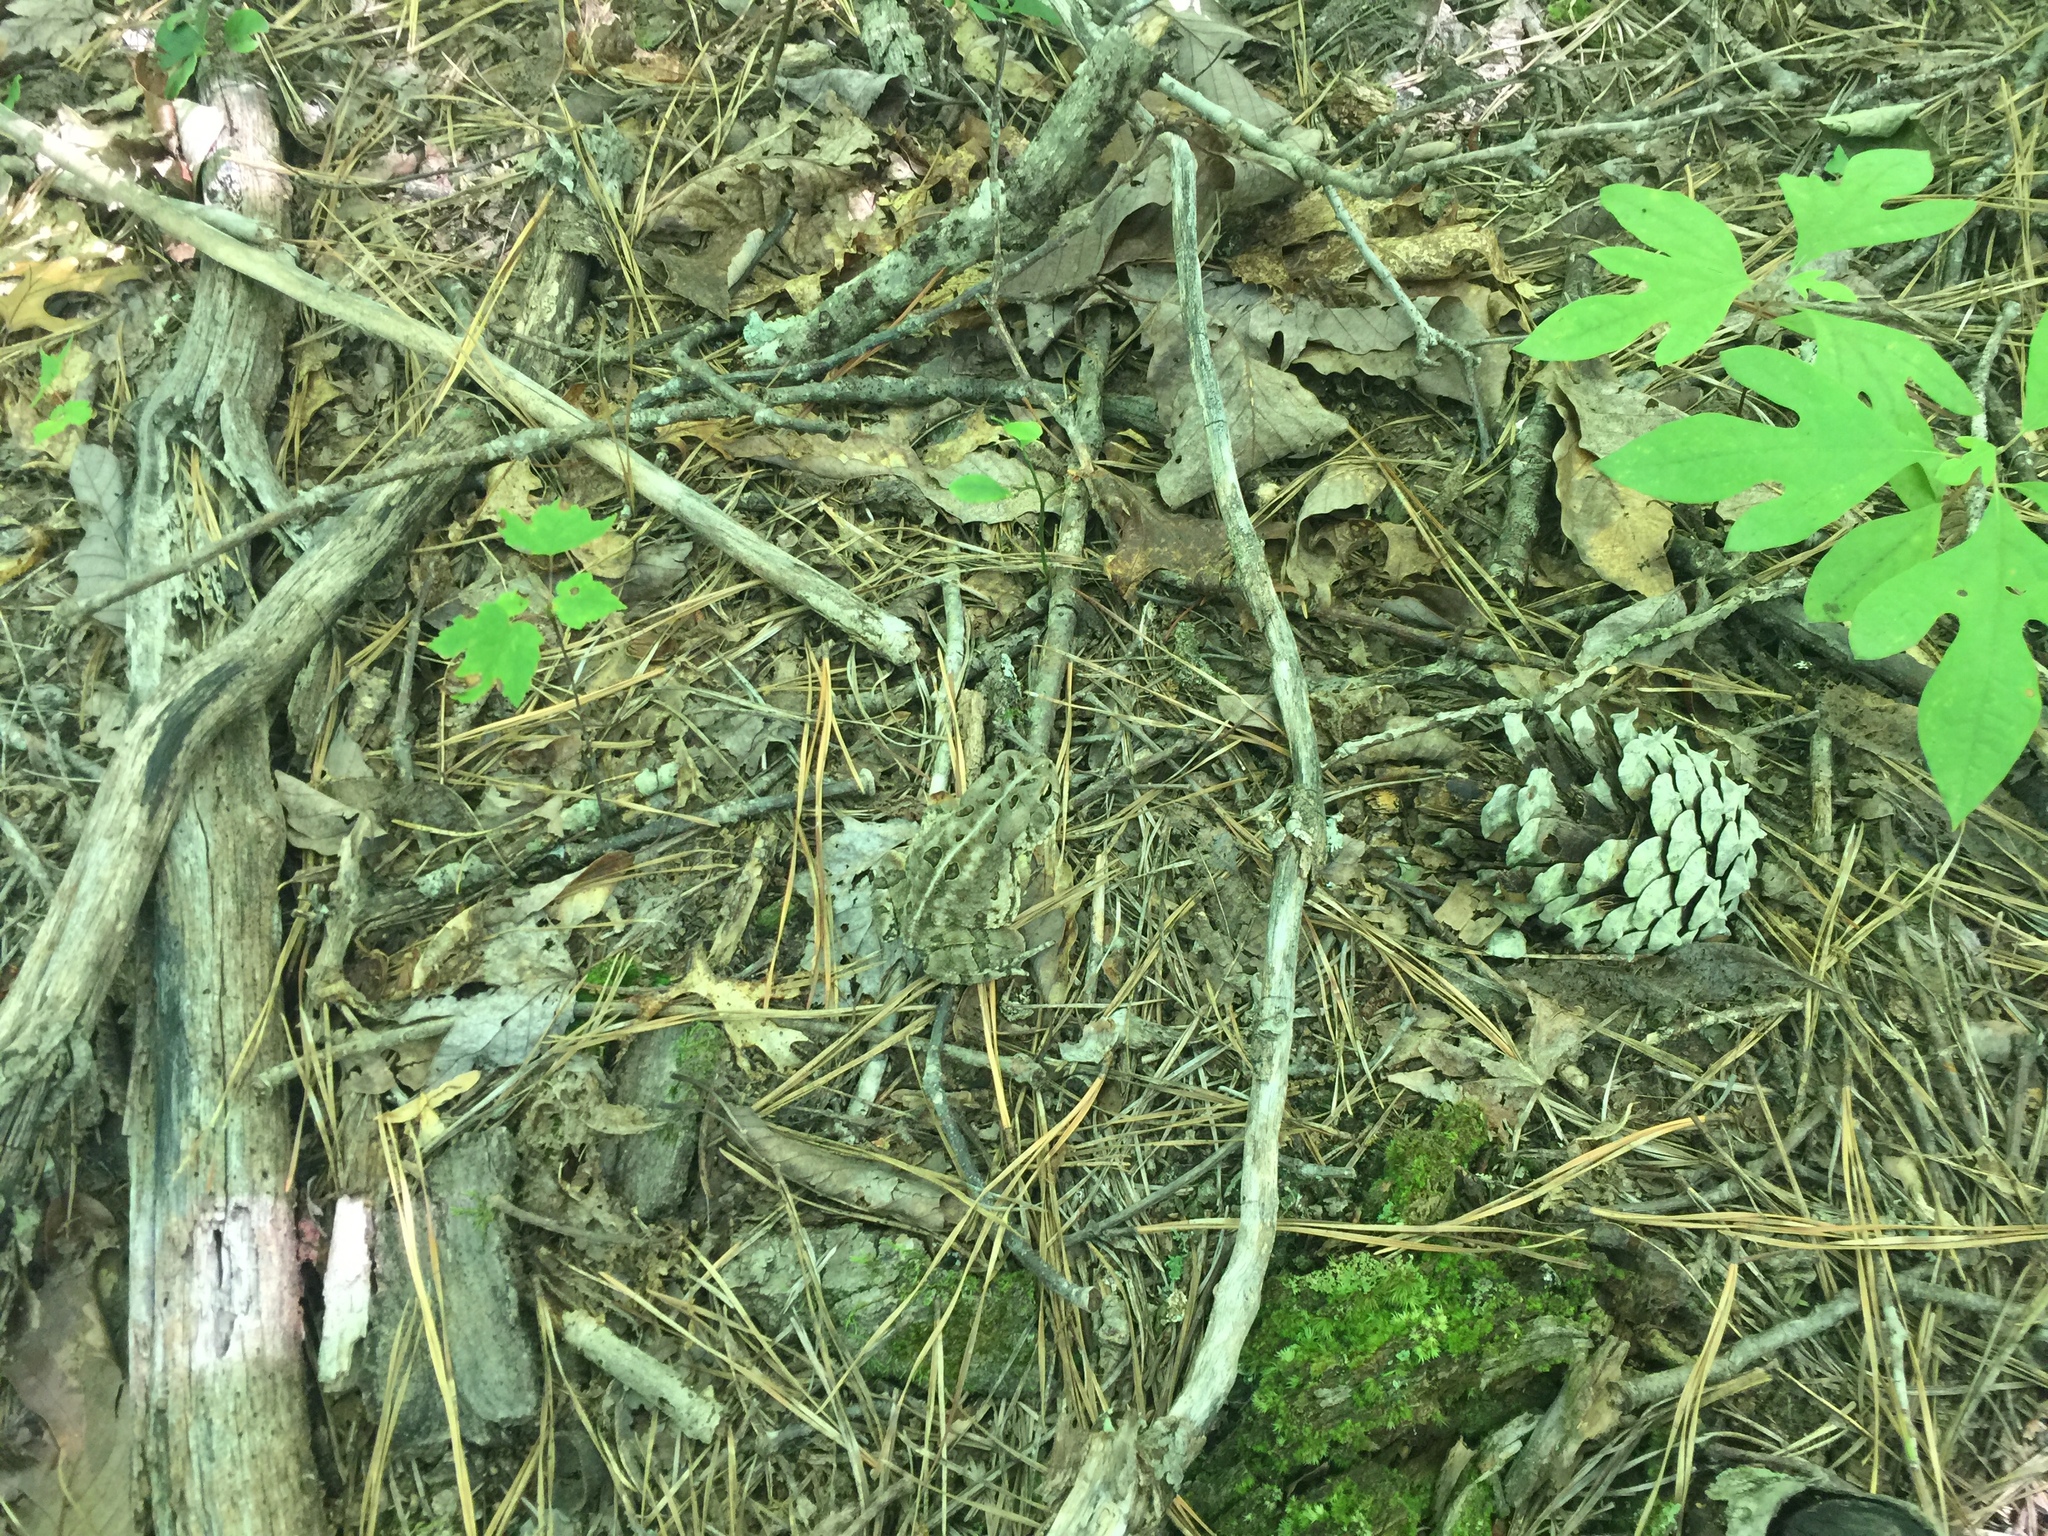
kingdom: Animalia
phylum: Chordata
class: Amphibia
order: Anura
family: Bufonidae
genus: Anaxyrus
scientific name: Anaxyrus fowleri
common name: Fowler's toad
